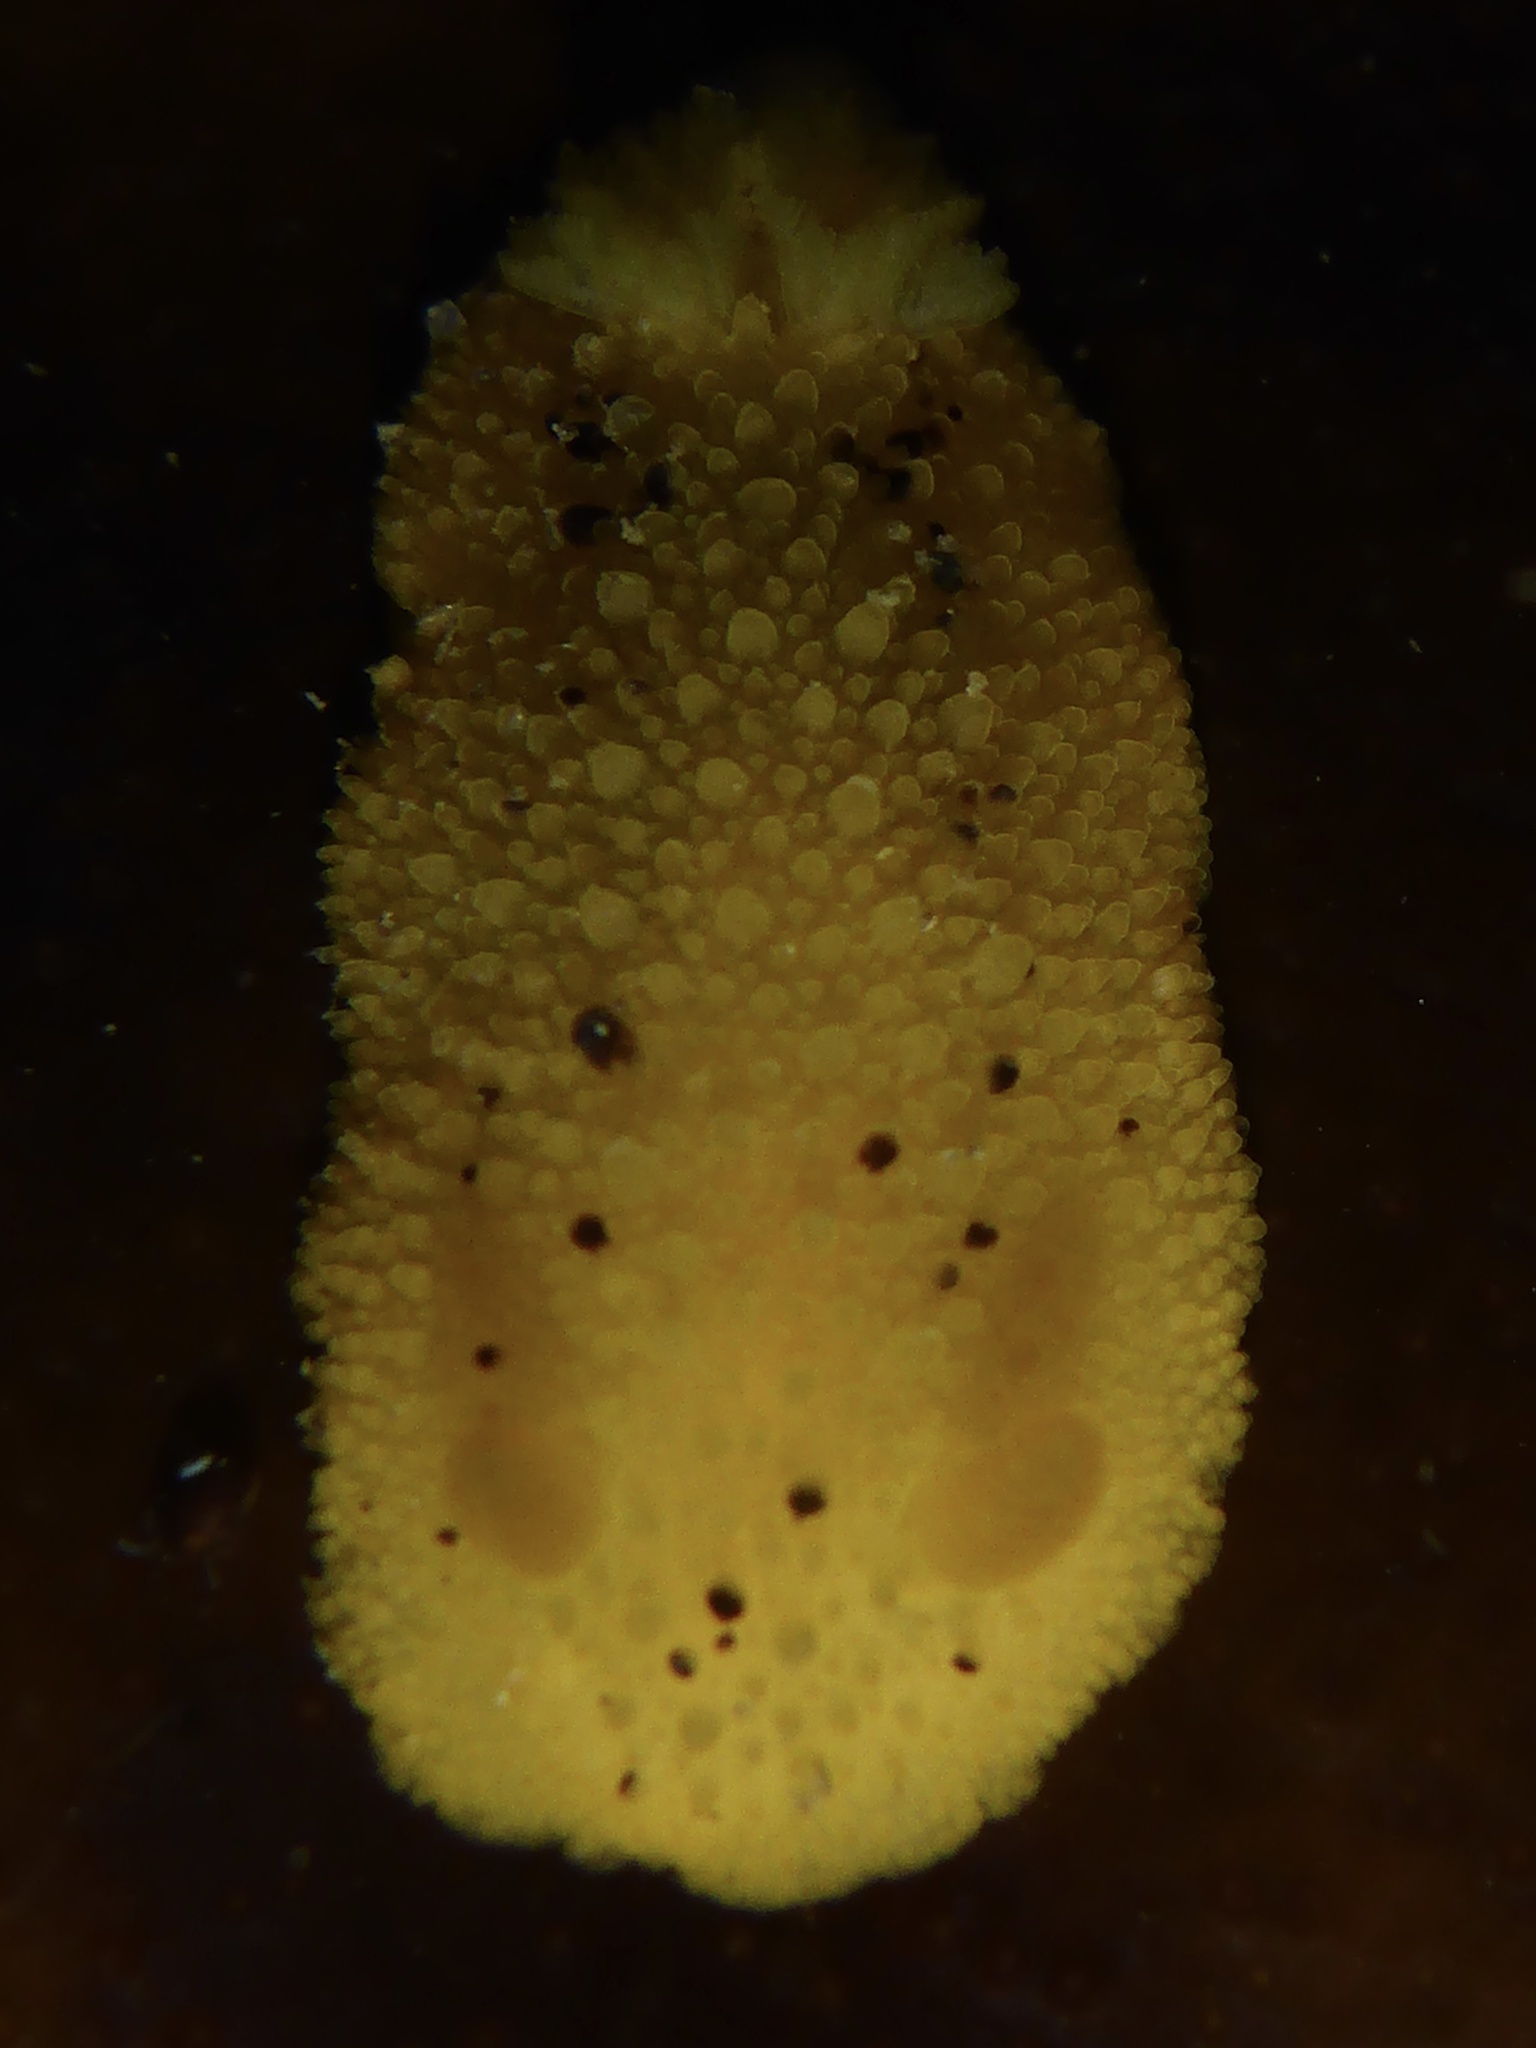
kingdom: Animalia
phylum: Mollusca
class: Gastropoda
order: Nudibranchia
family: Dorididae
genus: Doris
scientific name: Doris montereyensis
